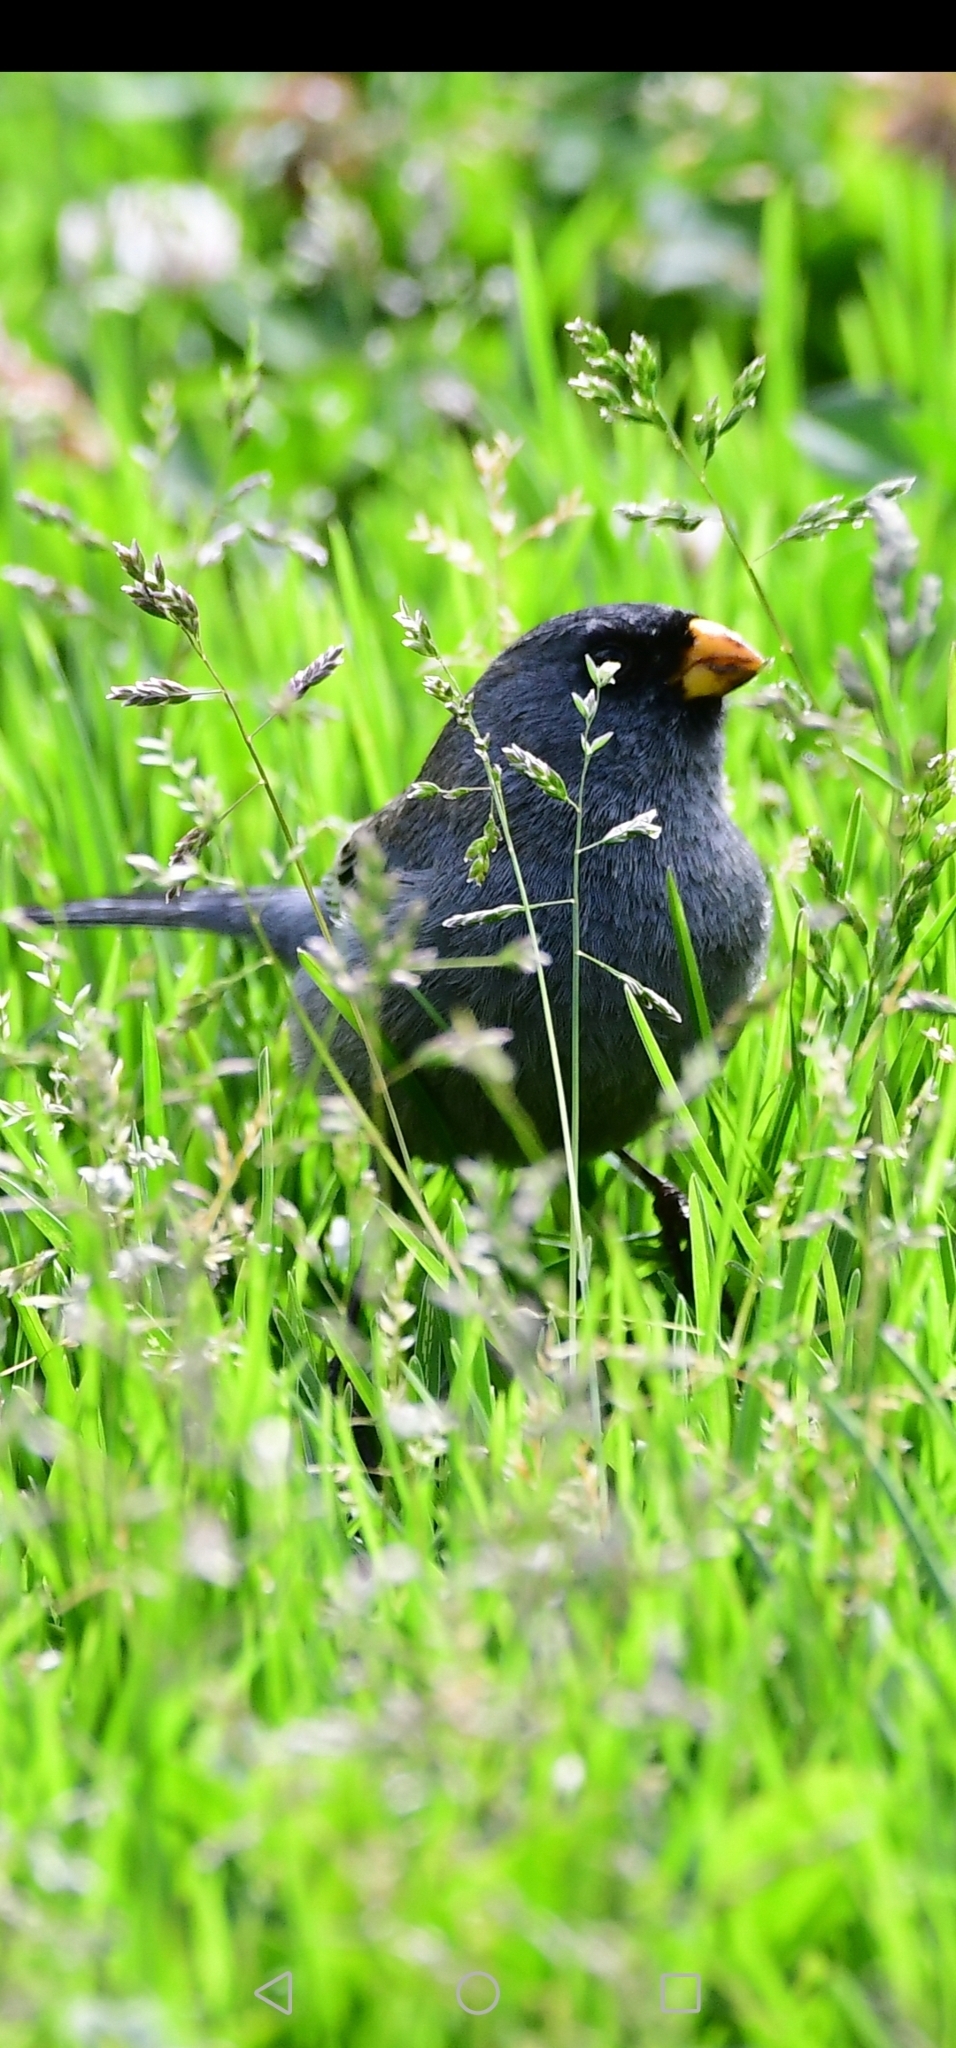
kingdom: Animalia
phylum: Chordata
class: Aves
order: Passeriformes
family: Thraupidae
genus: Catamenia
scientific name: Catamenia analis
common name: Band-tailed seedeater
